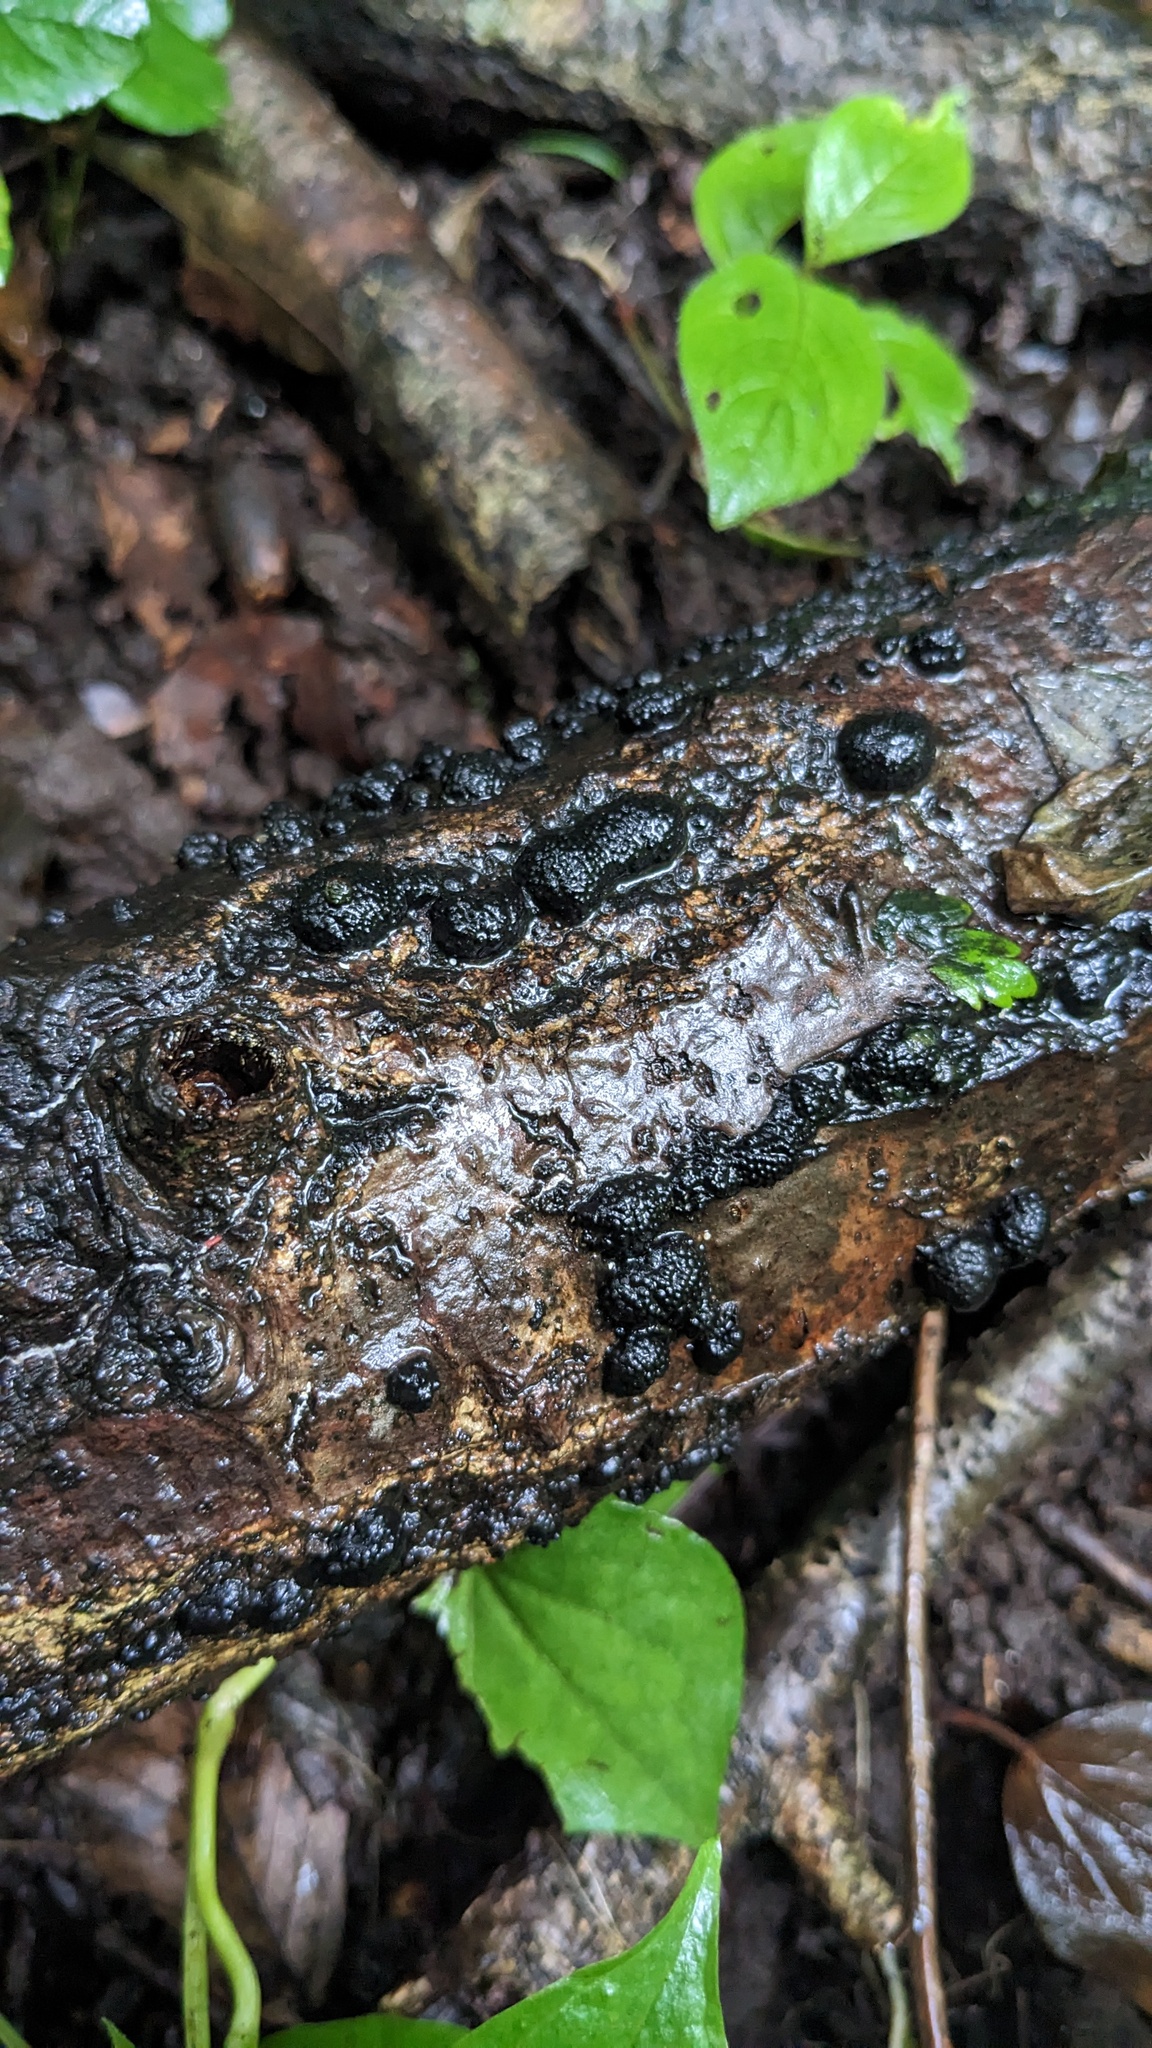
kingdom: Fungi
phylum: Ascomycota
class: Sordariomycetes
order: Xylariales
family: Hypoxylaceae
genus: Annulohypoxylon
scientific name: Annulohypoxylon truncatum
